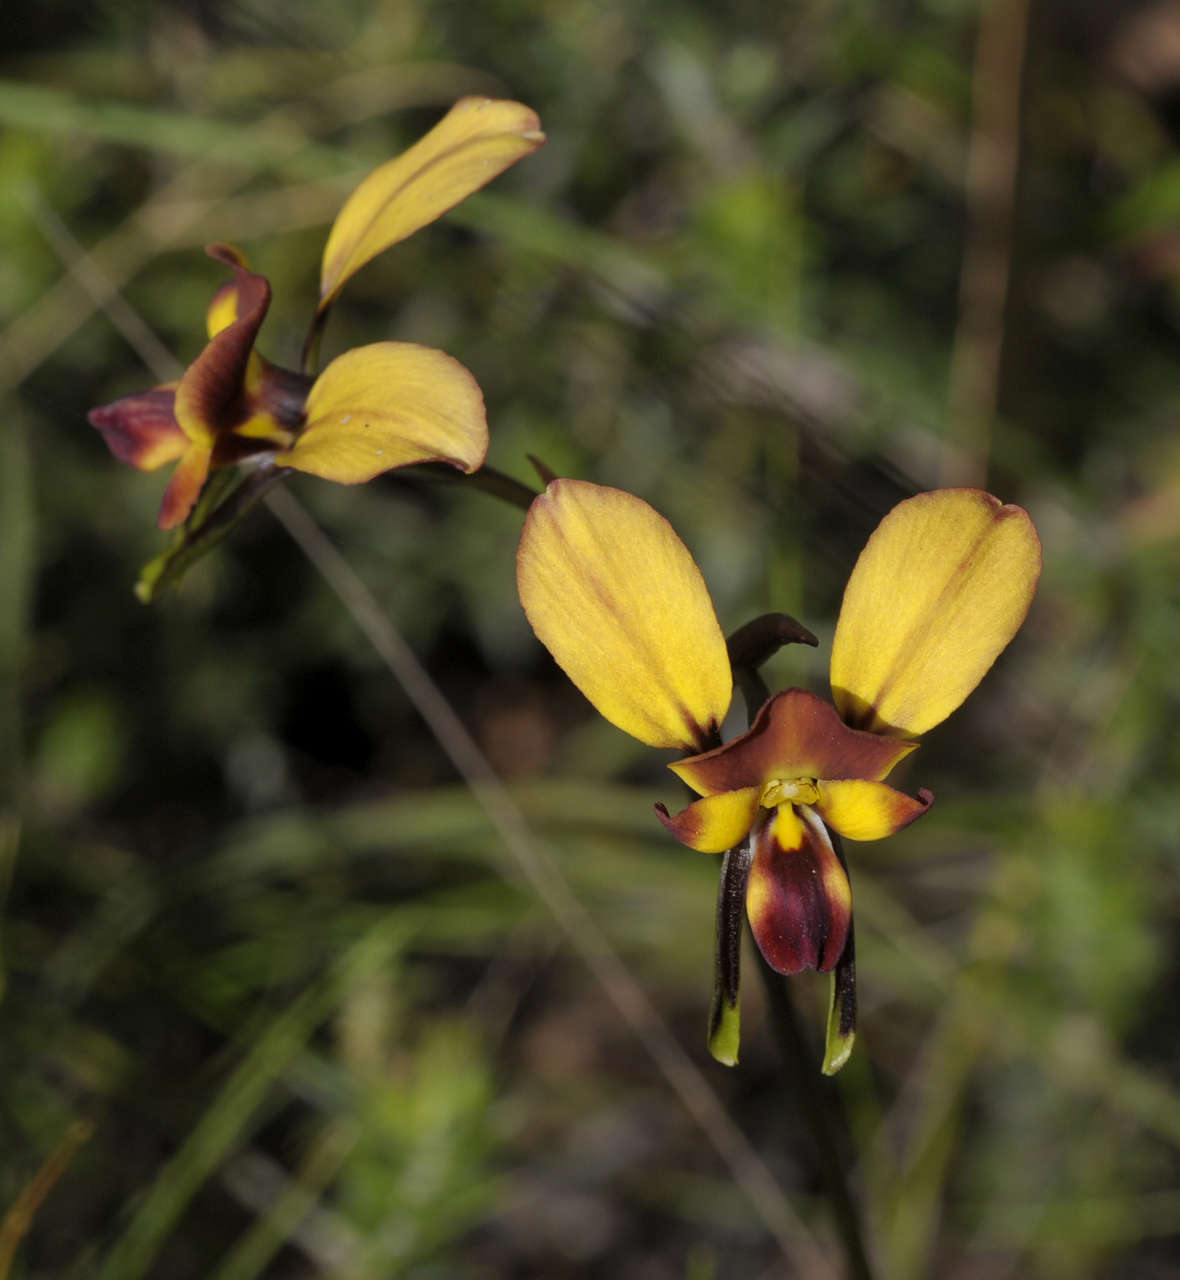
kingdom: Plantae
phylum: Tracheophyta
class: Liliopsida
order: Asparagales
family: Orchidaceae
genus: Diuris
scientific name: Diuris orientis
